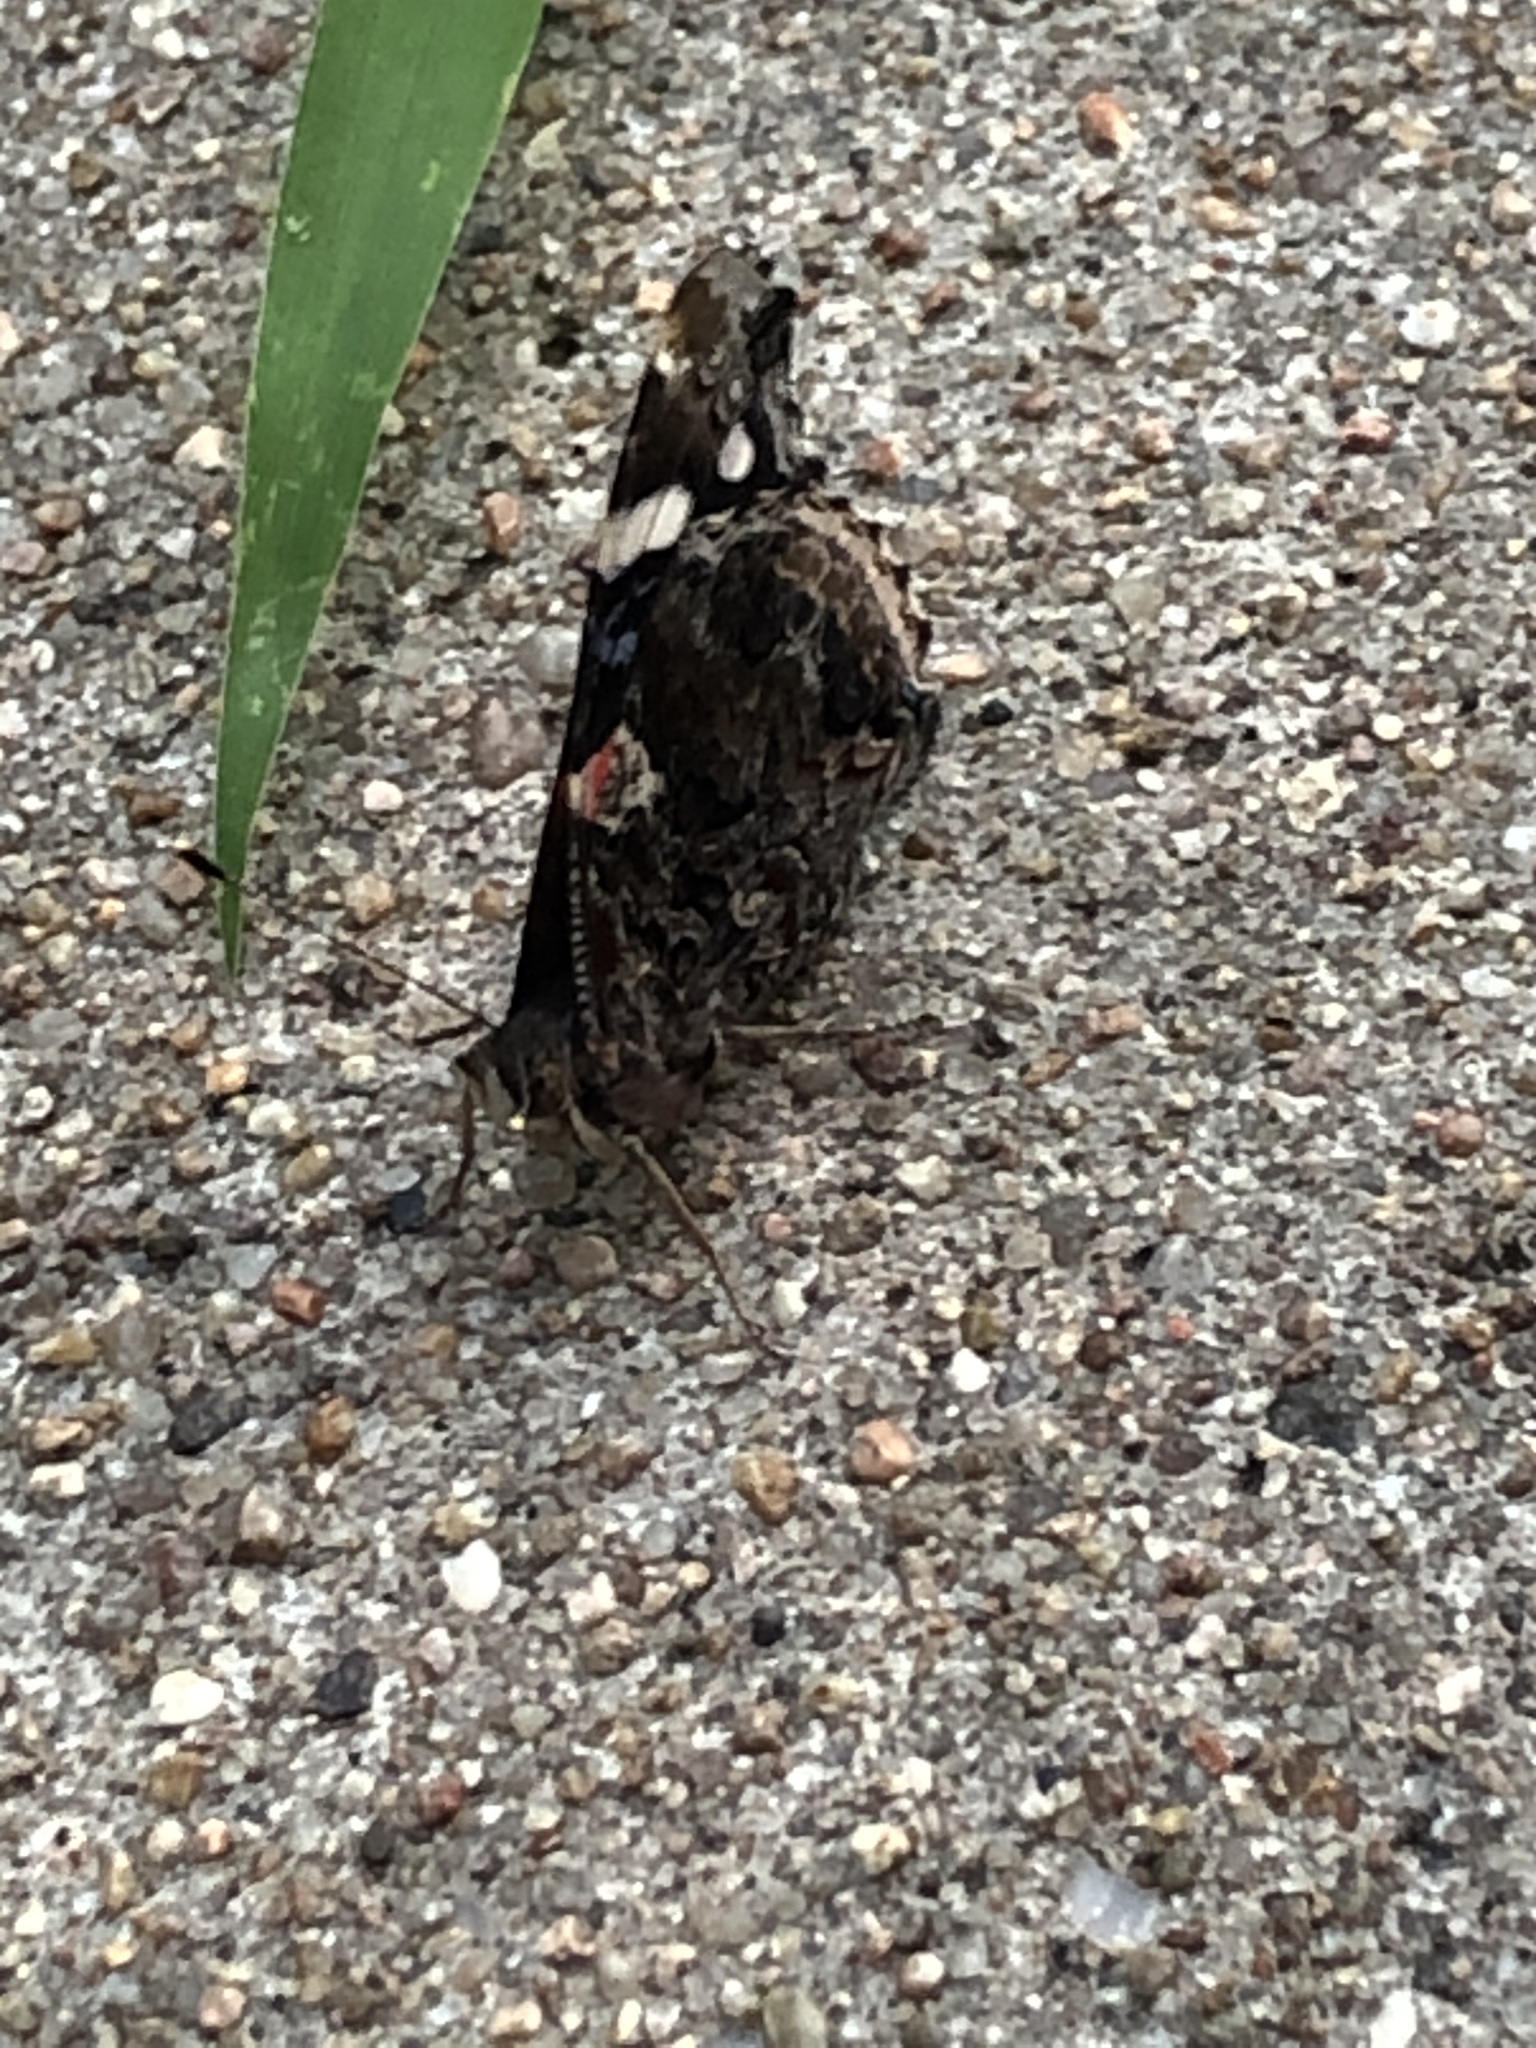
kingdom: Animalia
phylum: Arthropoda
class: Insecta
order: Lepidoptera
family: Nymphalidae
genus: Vanessa
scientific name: Vanessa atalanta
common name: Red admiral
